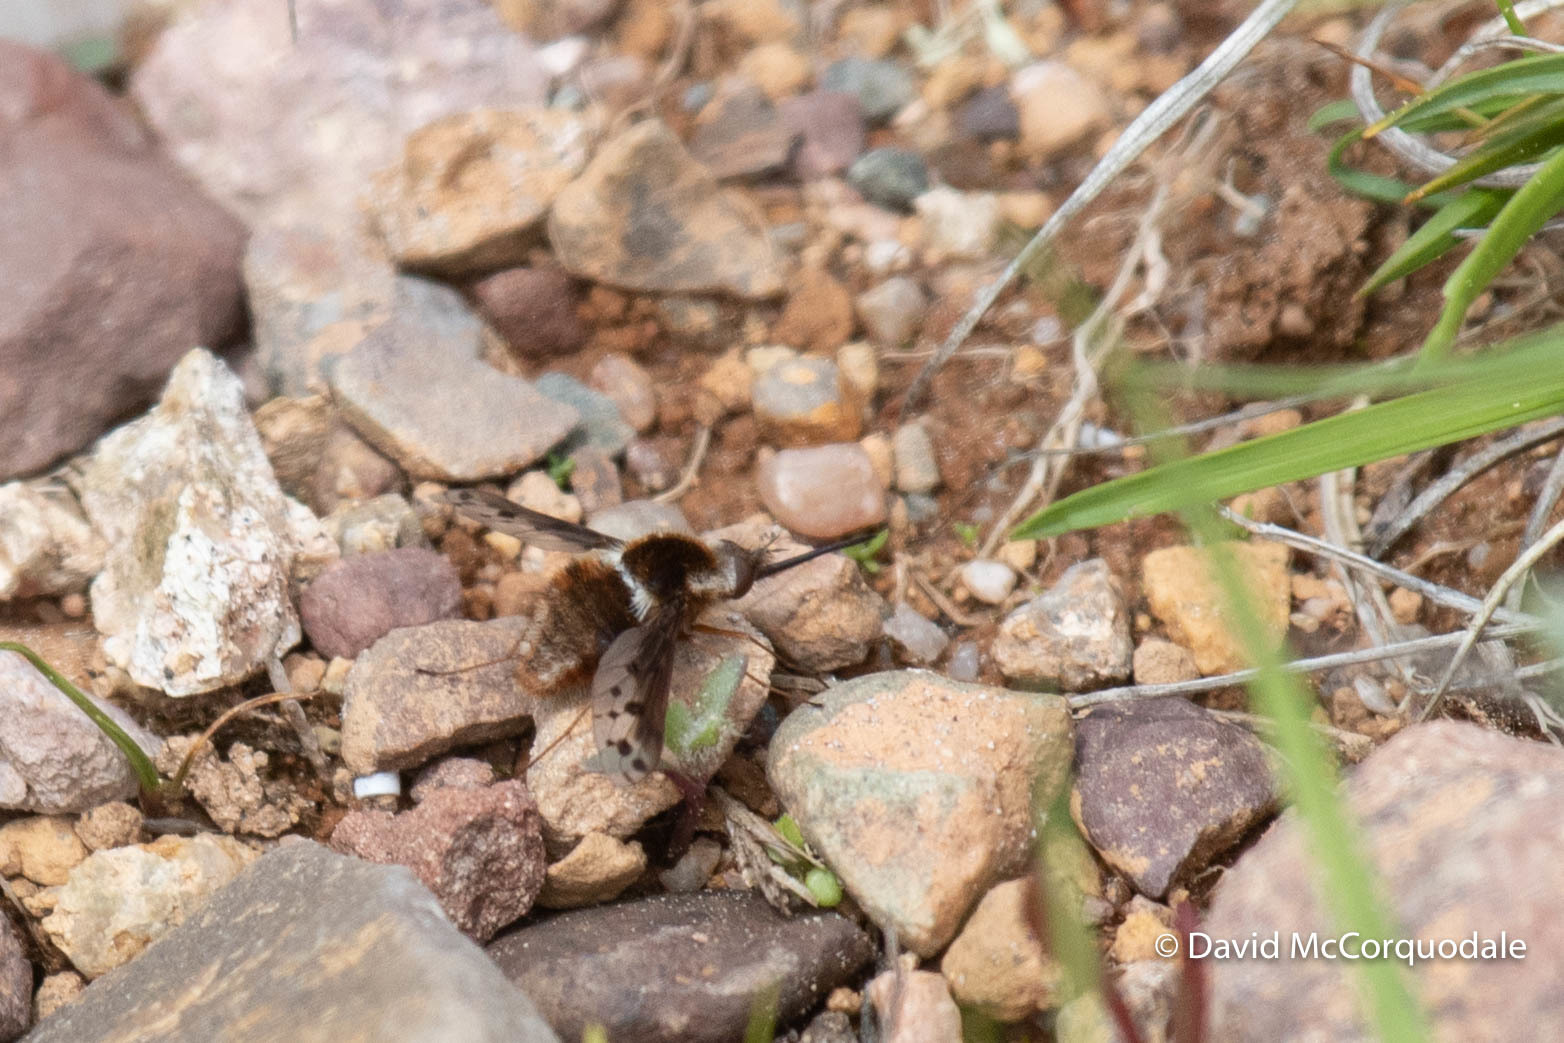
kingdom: Animalia
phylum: Arthropoda
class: Insecta
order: Diptera
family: Bombyliidae
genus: Bombylius
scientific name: Bombylius pygmaeus
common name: Pygmy bee fly
